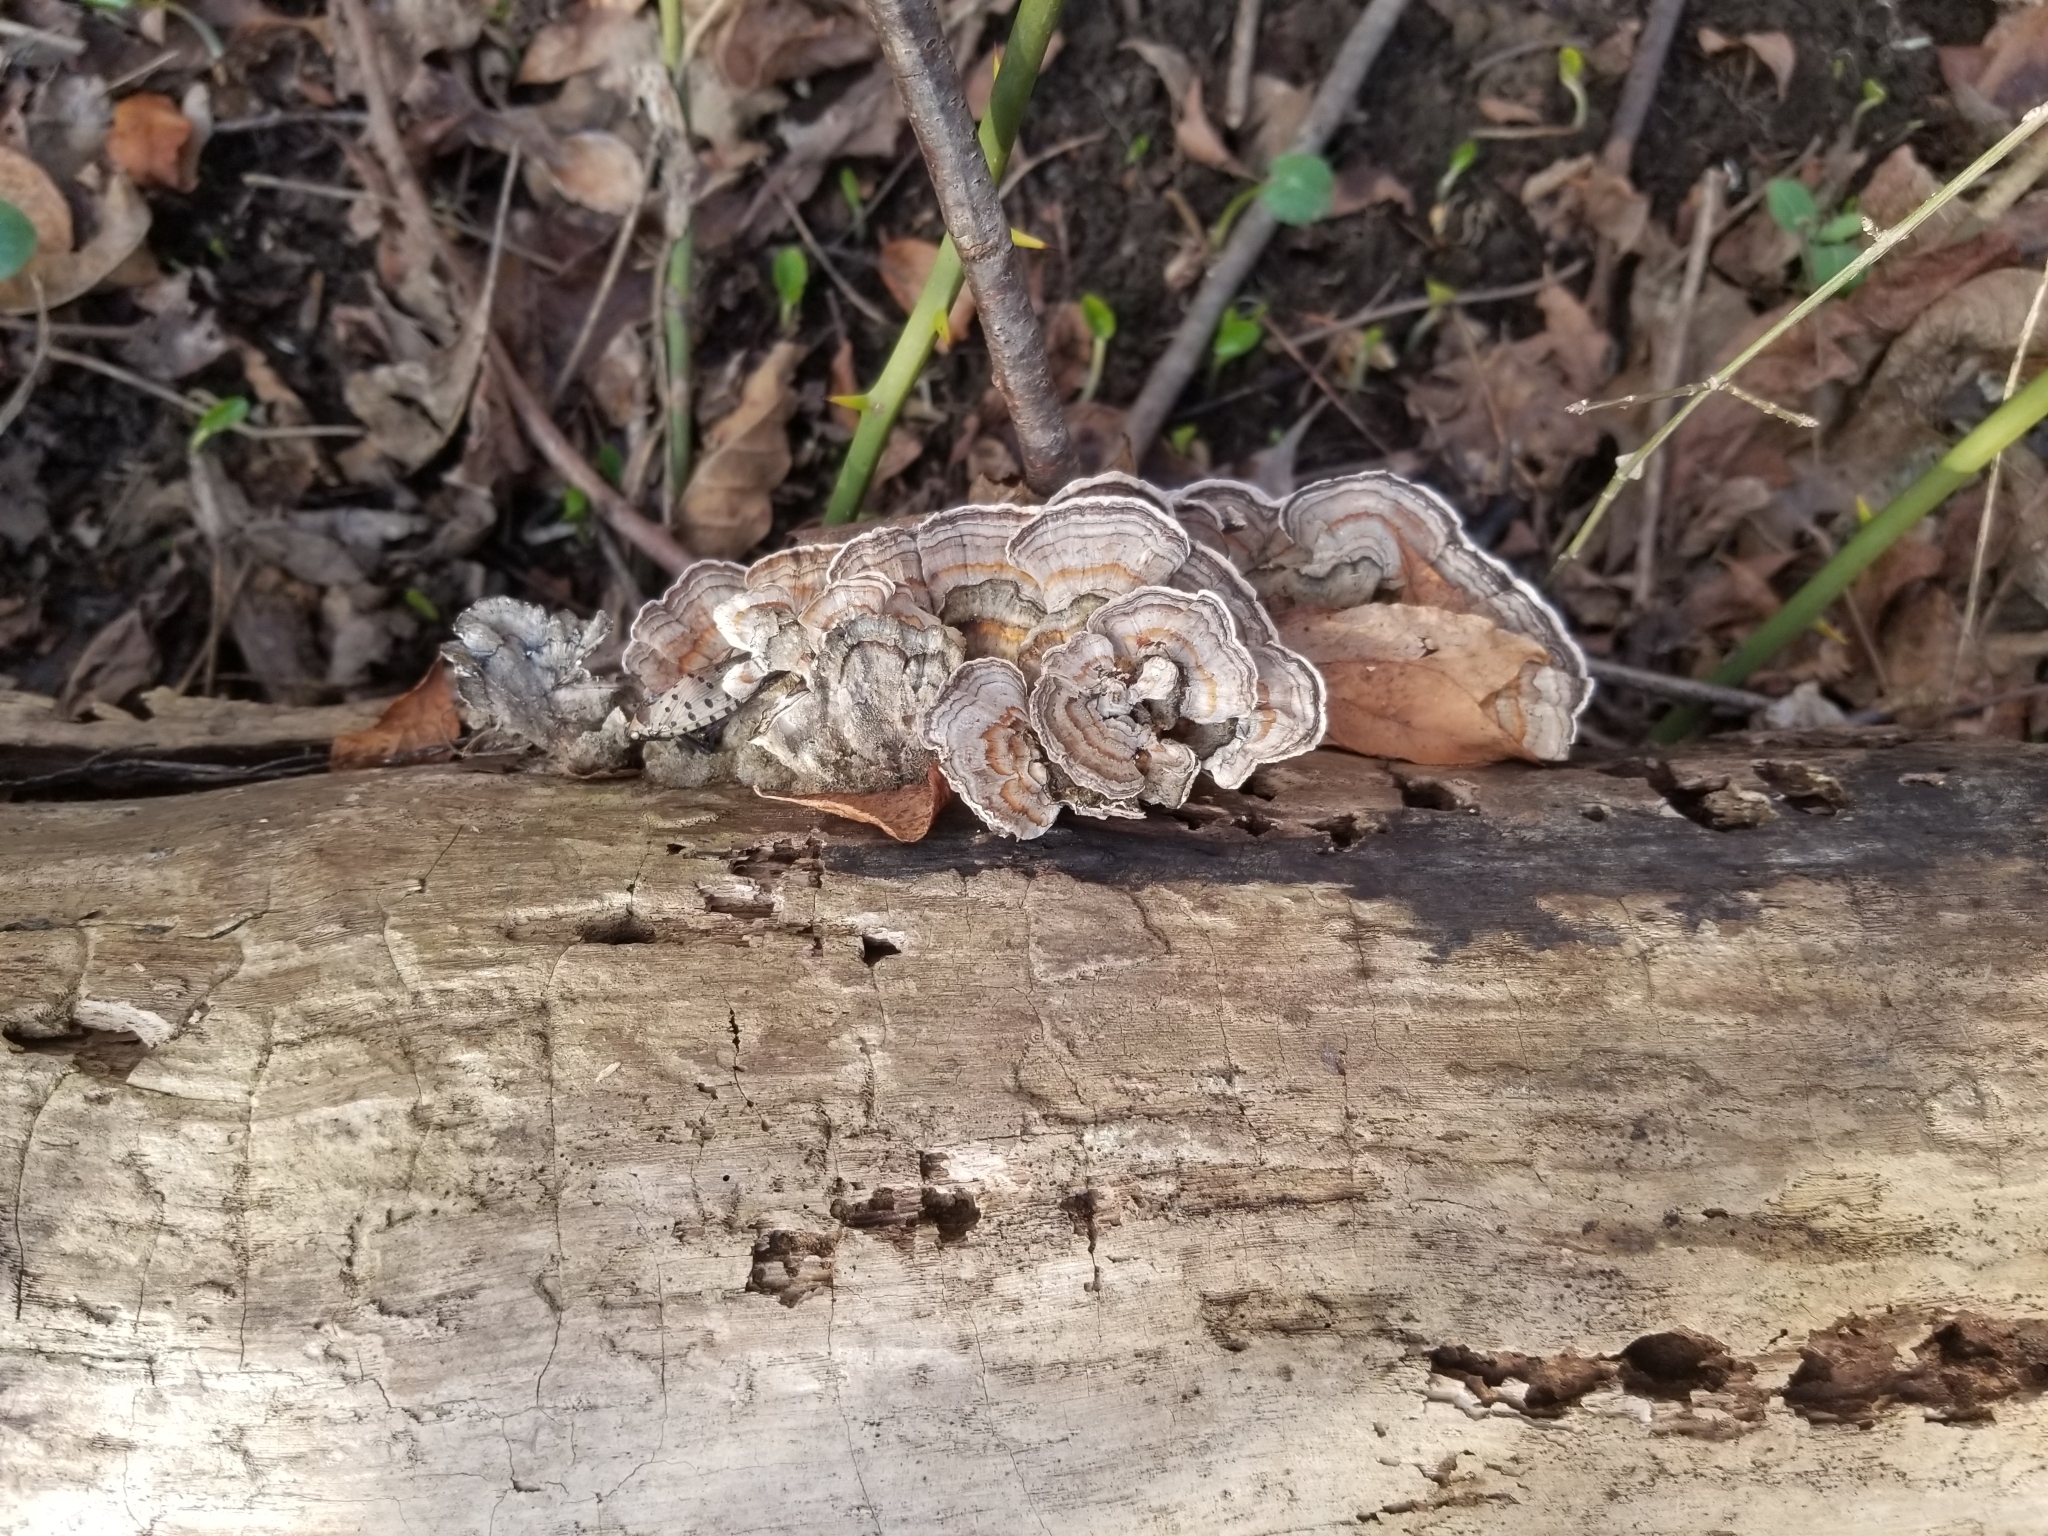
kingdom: Fungi
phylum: Basidiomycota
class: Agaricomycetes
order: Polyporales
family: Polyporaceae
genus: Trametes
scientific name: Trametes versicolor
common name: Turkeytail
